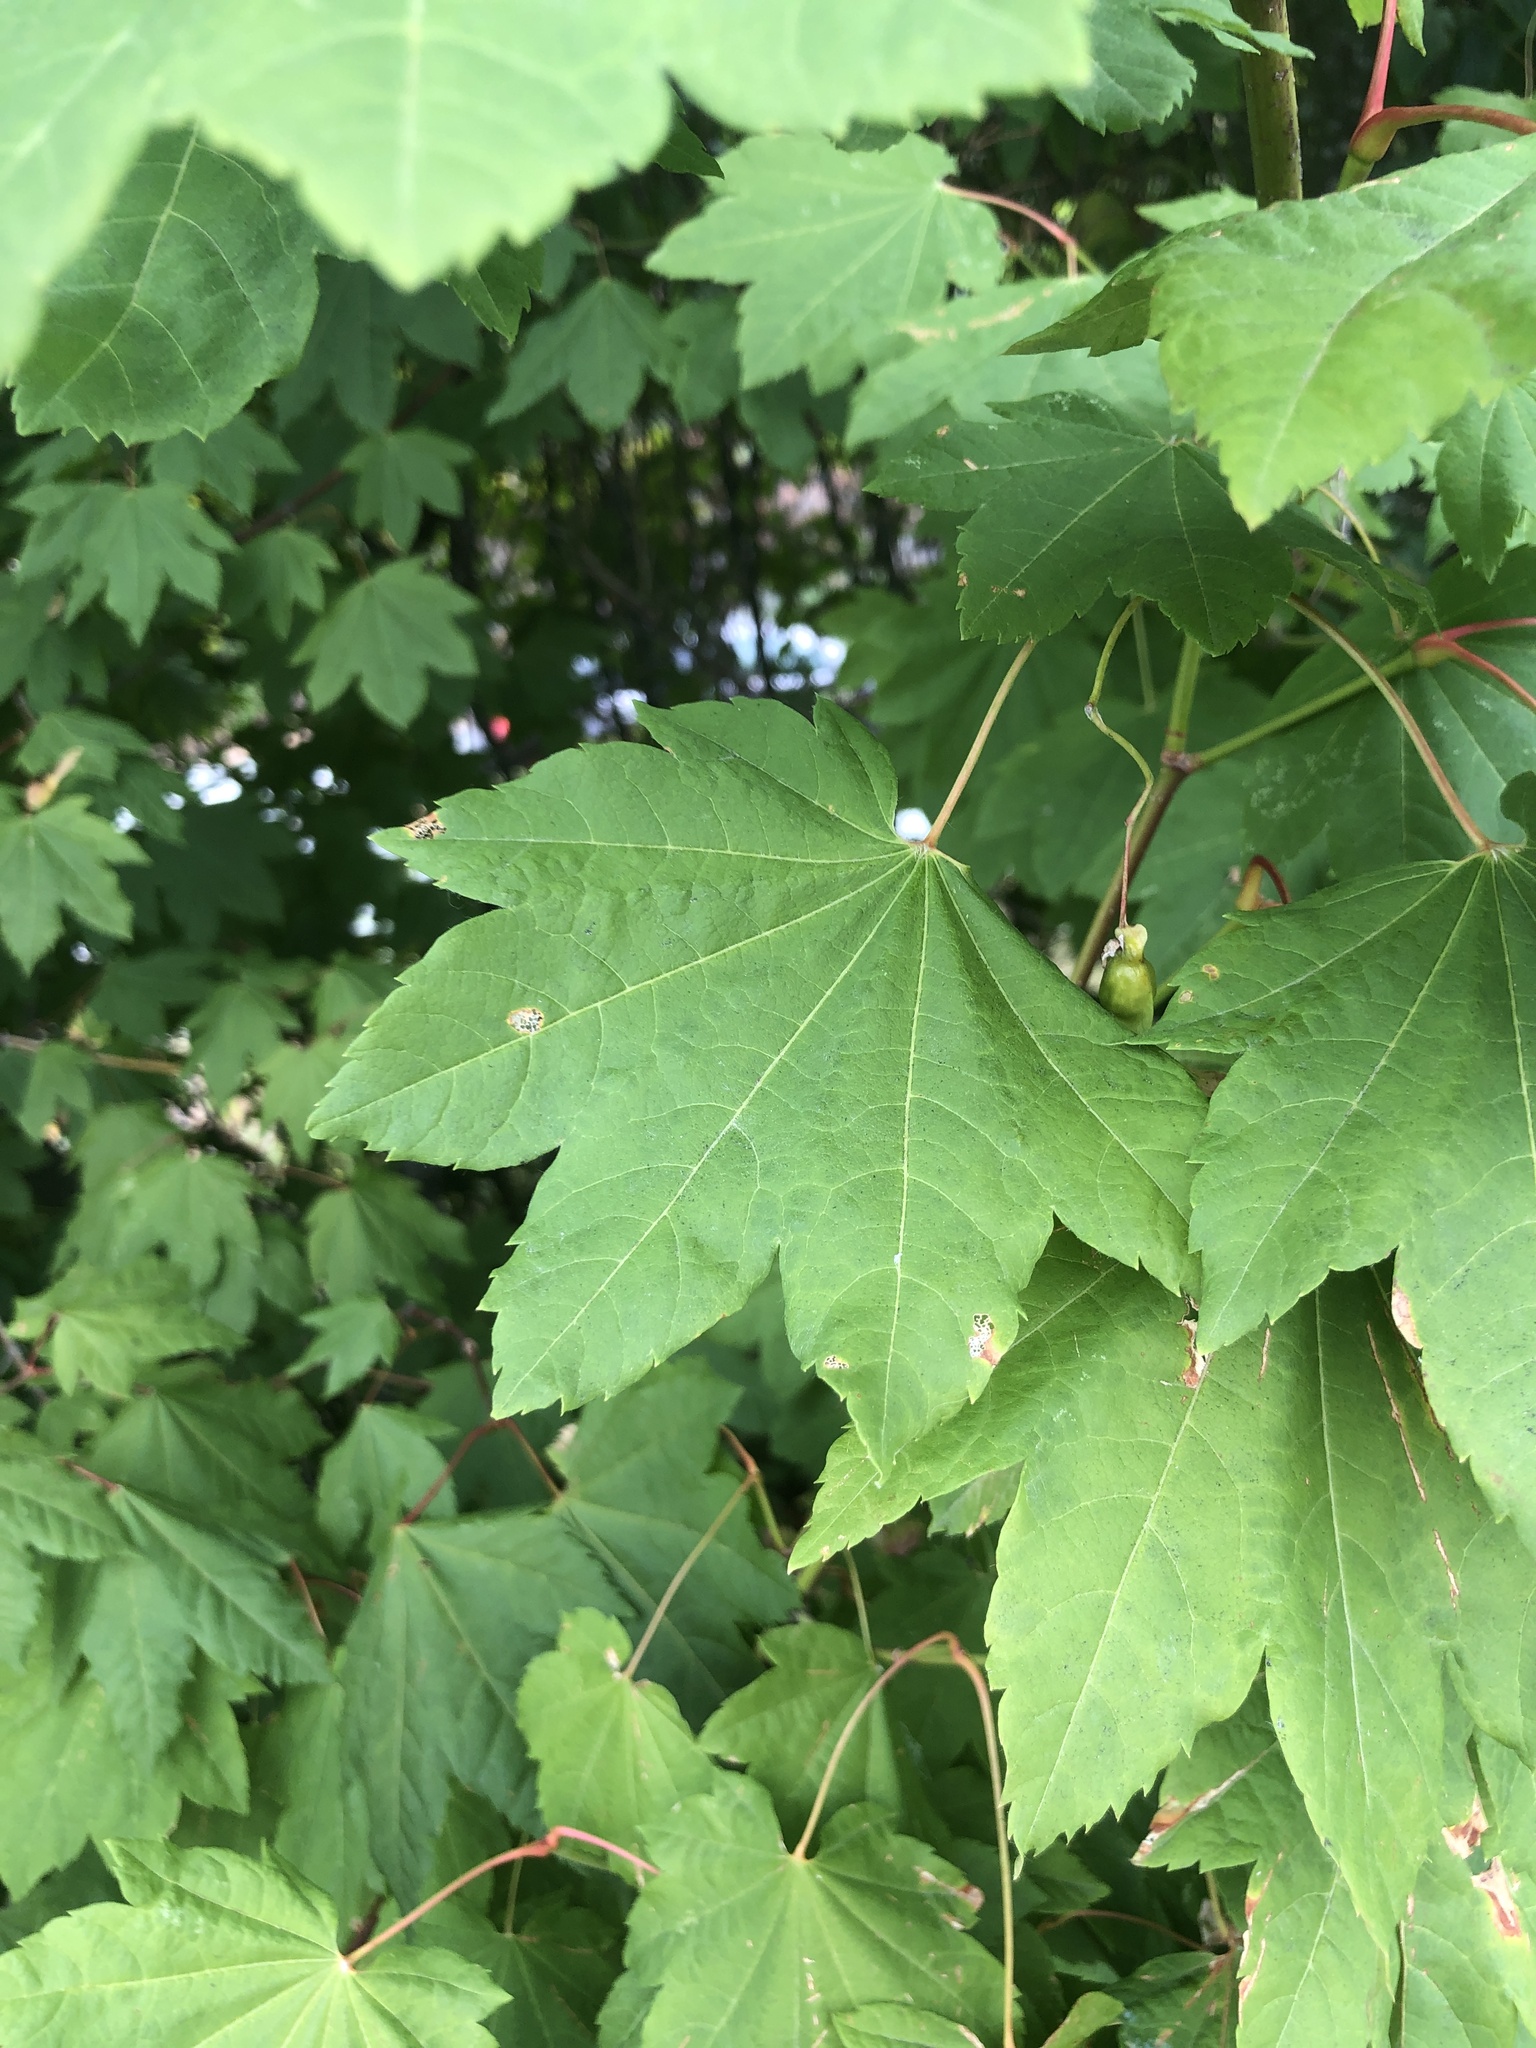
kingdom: Plantae
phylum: Tracheophyta
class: Magnoliopsida
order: Sapindales
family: Sapindaceae
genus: Acer
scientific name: Acer circinatum
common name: Vine maple
